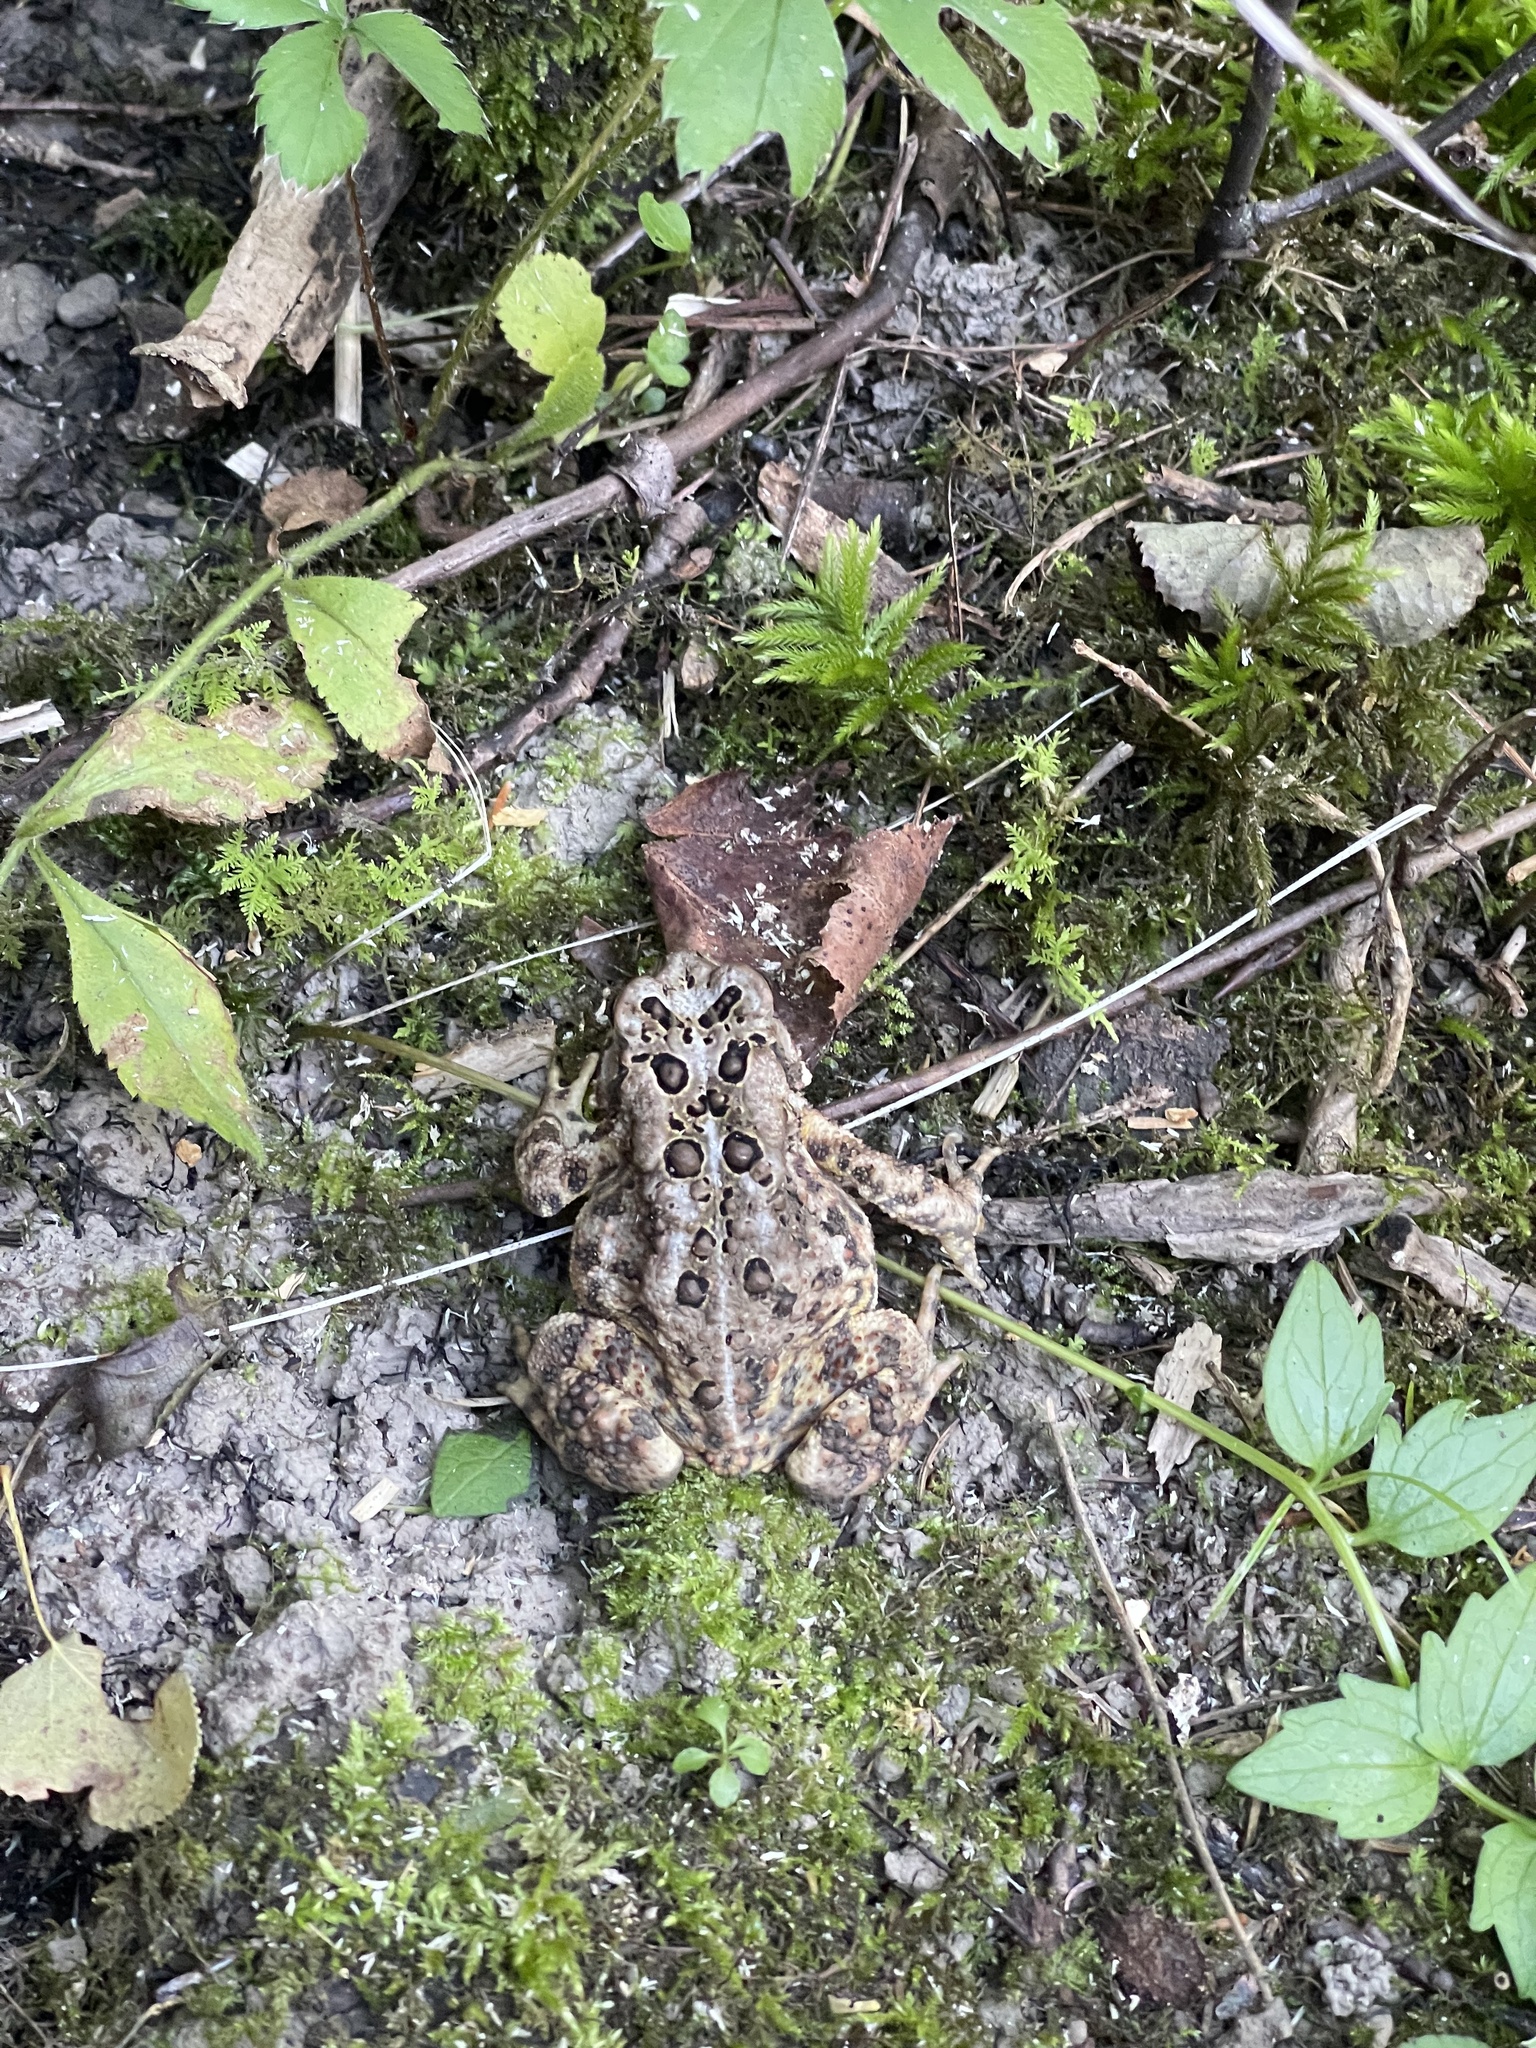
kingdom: Animalia
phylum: Chordata
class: Amphibia
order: Anura
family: Bufonidae
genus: Anaxyrus
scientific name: Anaxyrus americanus
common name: American toad
